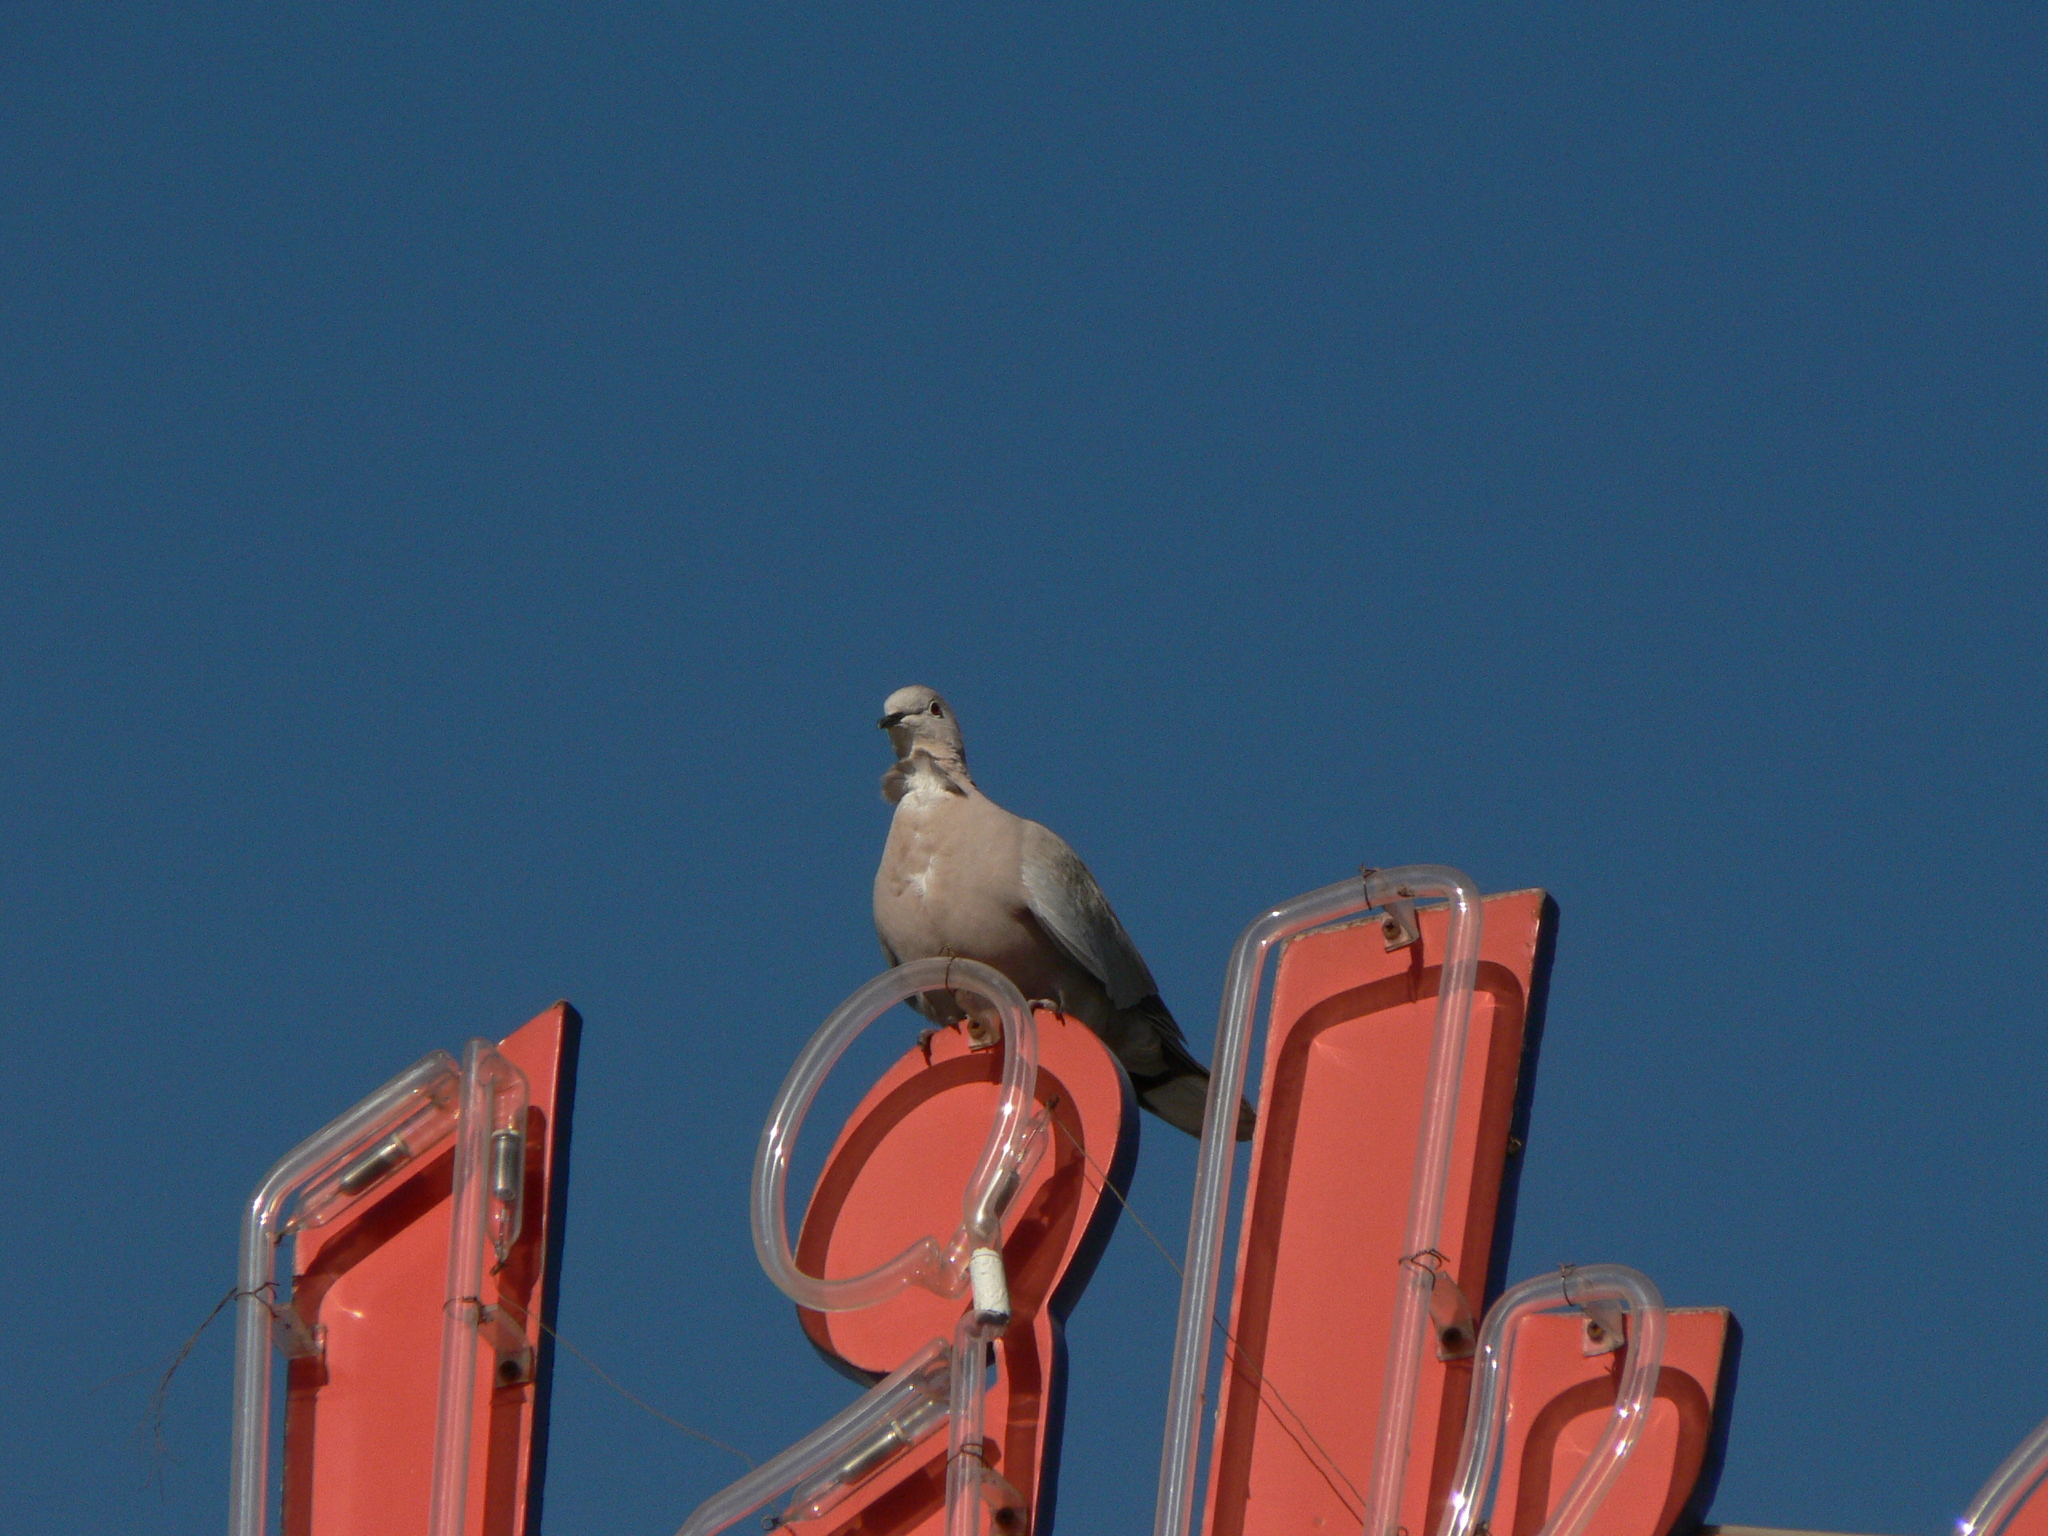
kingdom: Animalia
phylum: Chordata
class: Aves
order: Columbiformes
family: Columbidae
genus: Streptopelia
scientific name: Streptopelia decaocto
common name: Eurasian collared dove
